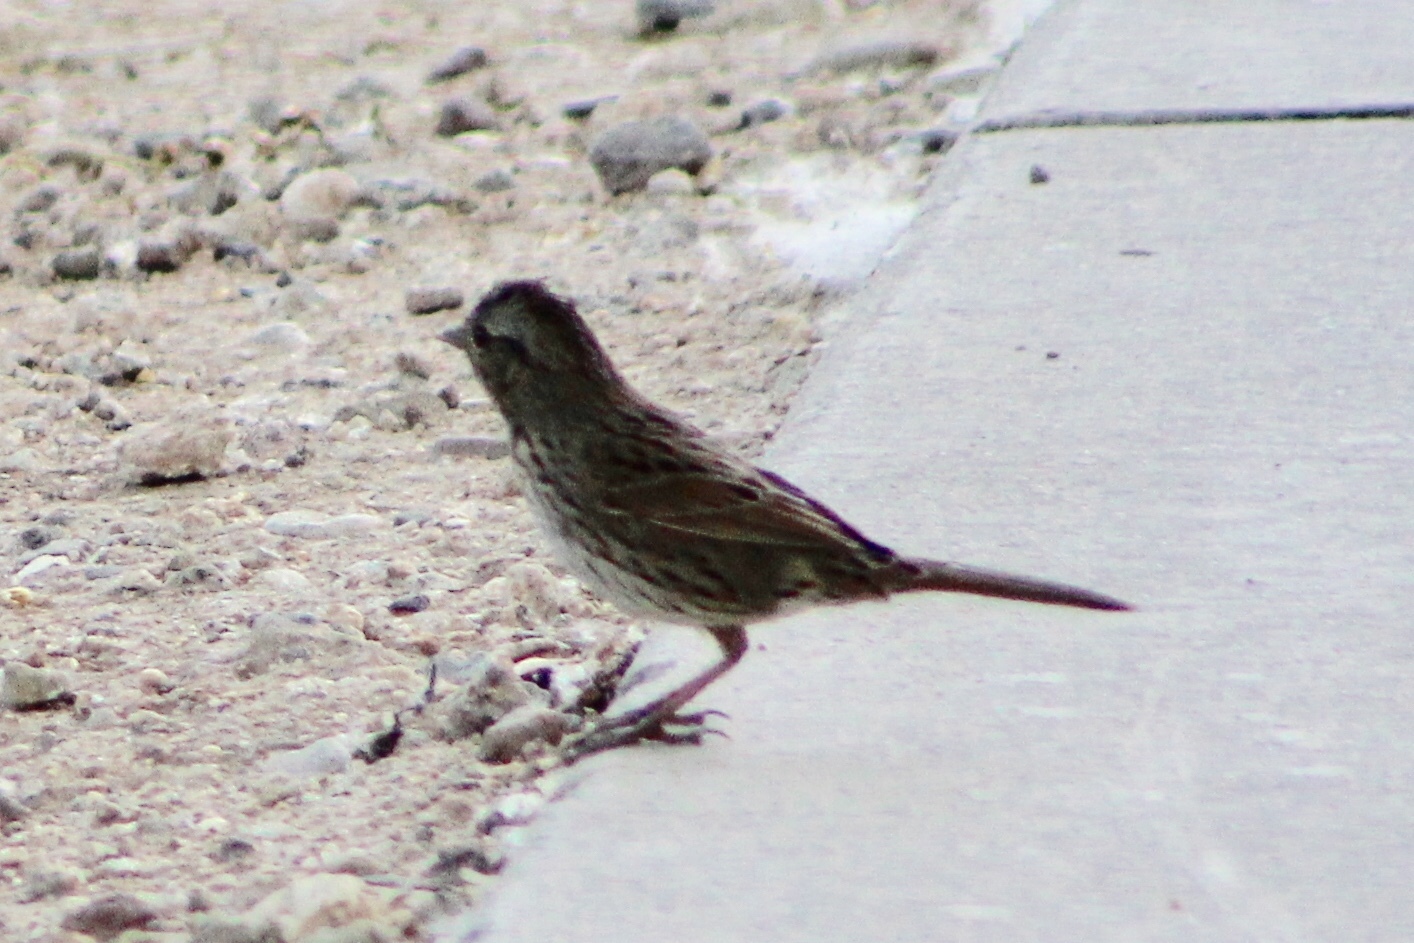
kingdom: Animalia
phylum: Chordata
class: Aves
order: Passeriformes
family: Passerellidae
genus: Melospiza
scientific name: Melospiza melodia
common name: Song sparrow
